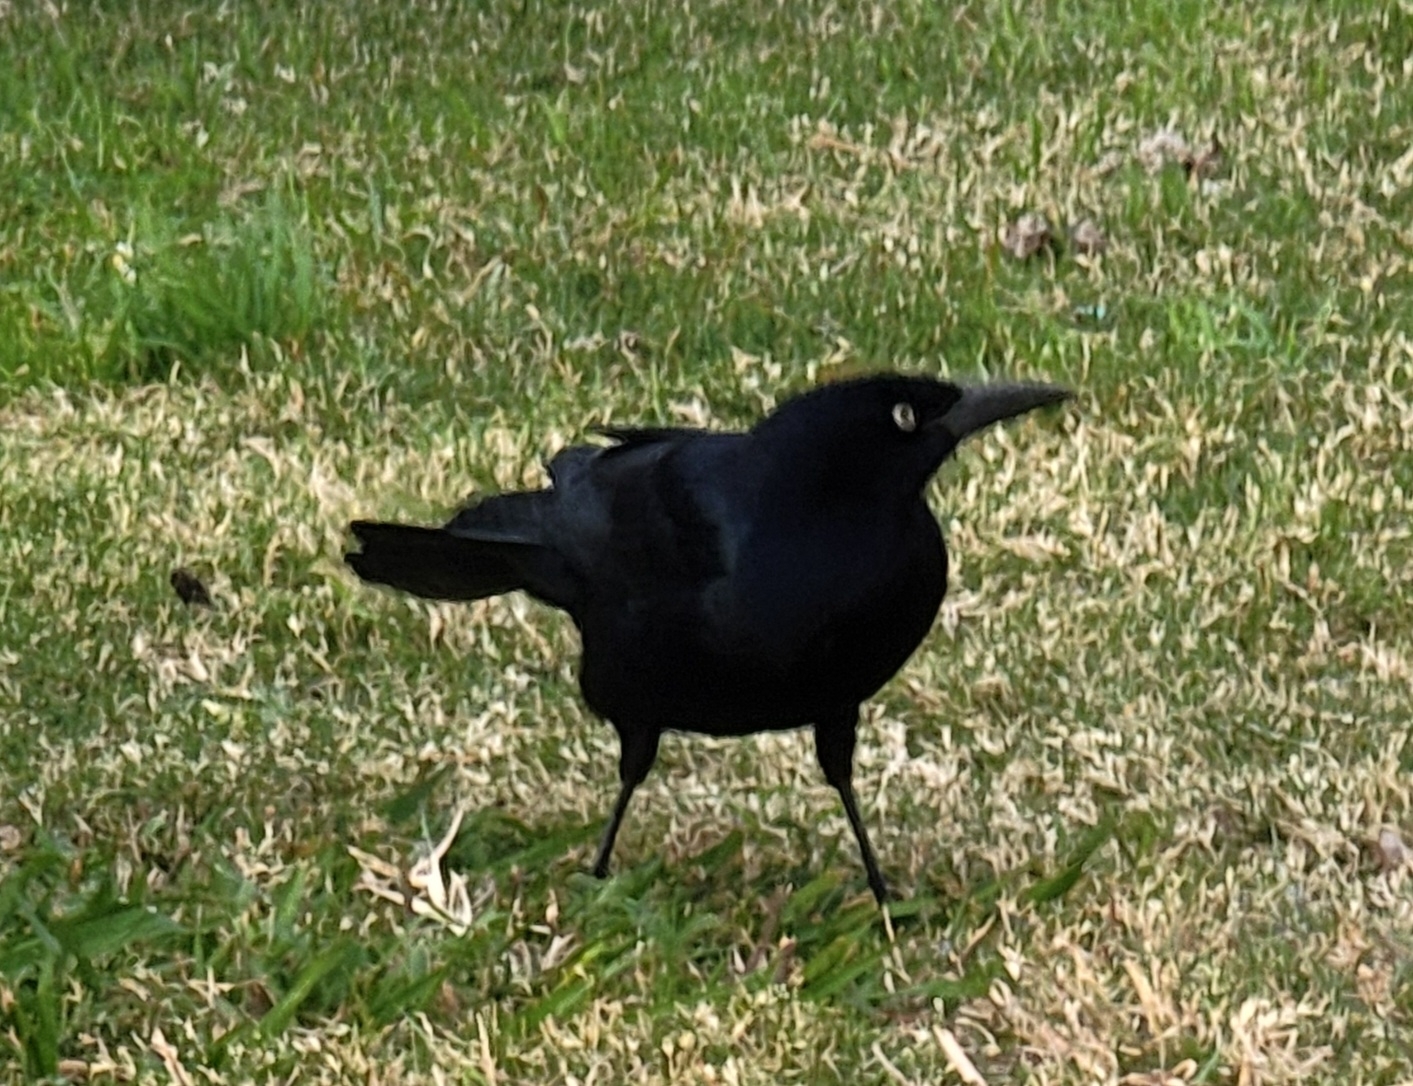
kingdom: Animalia
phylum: Chordata
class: Aves
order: Passeriformes
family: Icteridae
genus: Quiscalus
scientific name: Quiscalus mexicanus
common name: Great-tailed grackle
